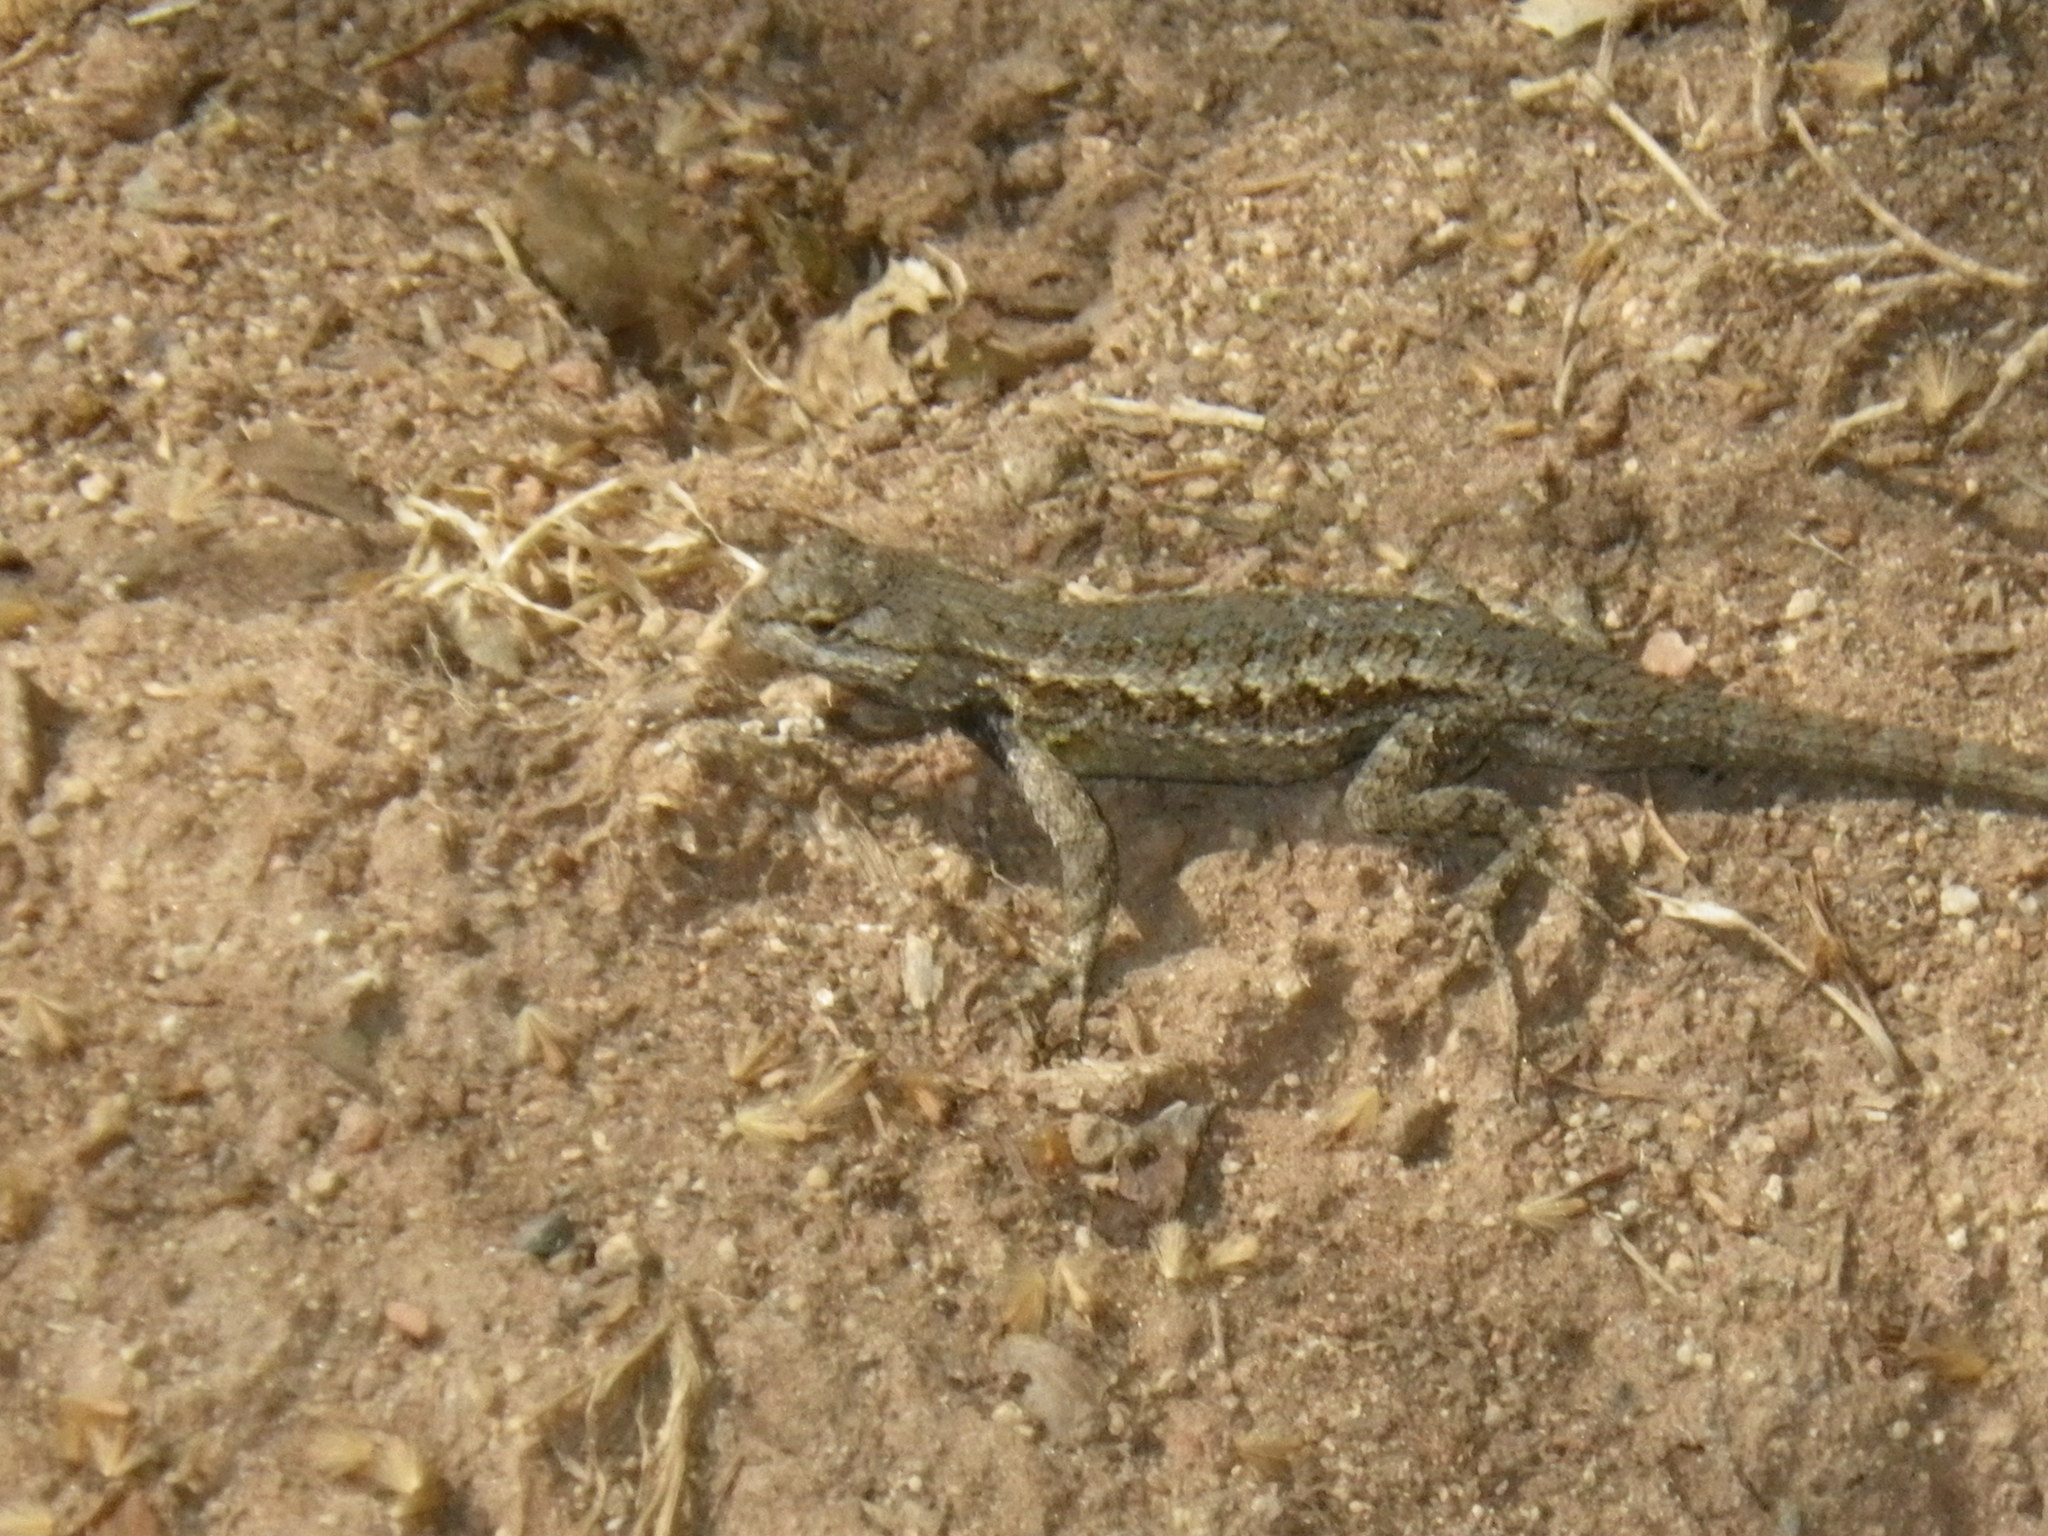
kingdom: Animalia
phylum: Chordata
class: Squamata
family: Phrynosomatidae
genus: Sceloporus
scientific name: Sceloporus occidentalis
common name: Western fence lizard
